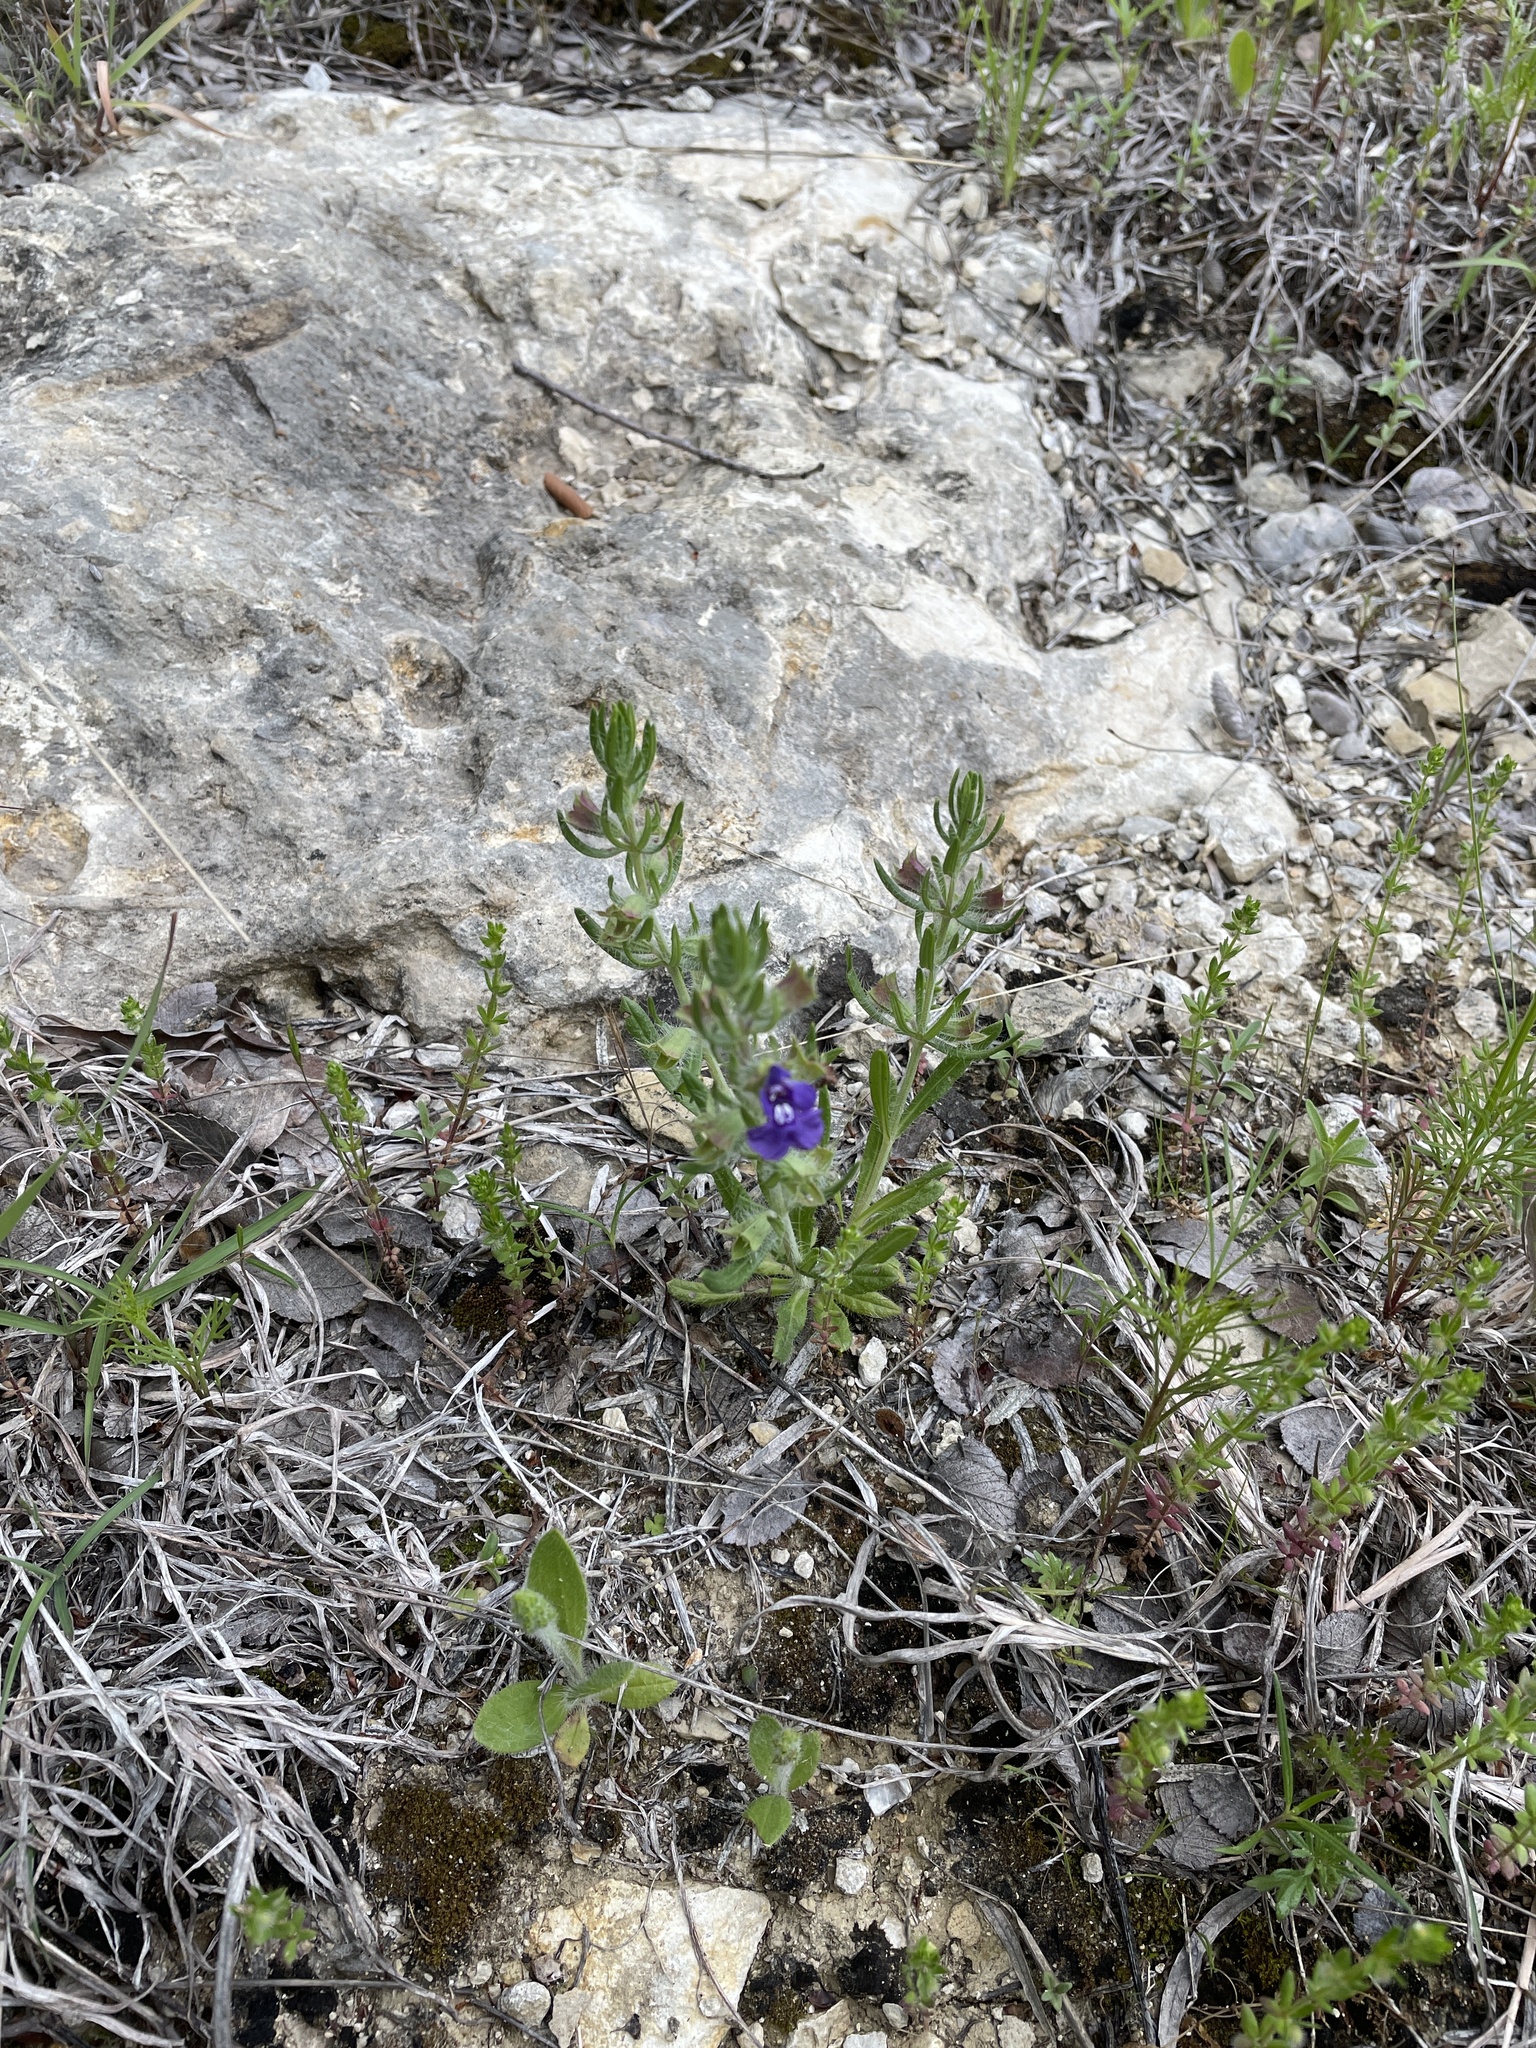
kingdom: Plantae
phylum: Tracheophyta
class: Magnoliopsida
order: Lamiales
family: Lamiaceae
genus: Salvia
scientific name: Salvia texana
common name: Texas sage
